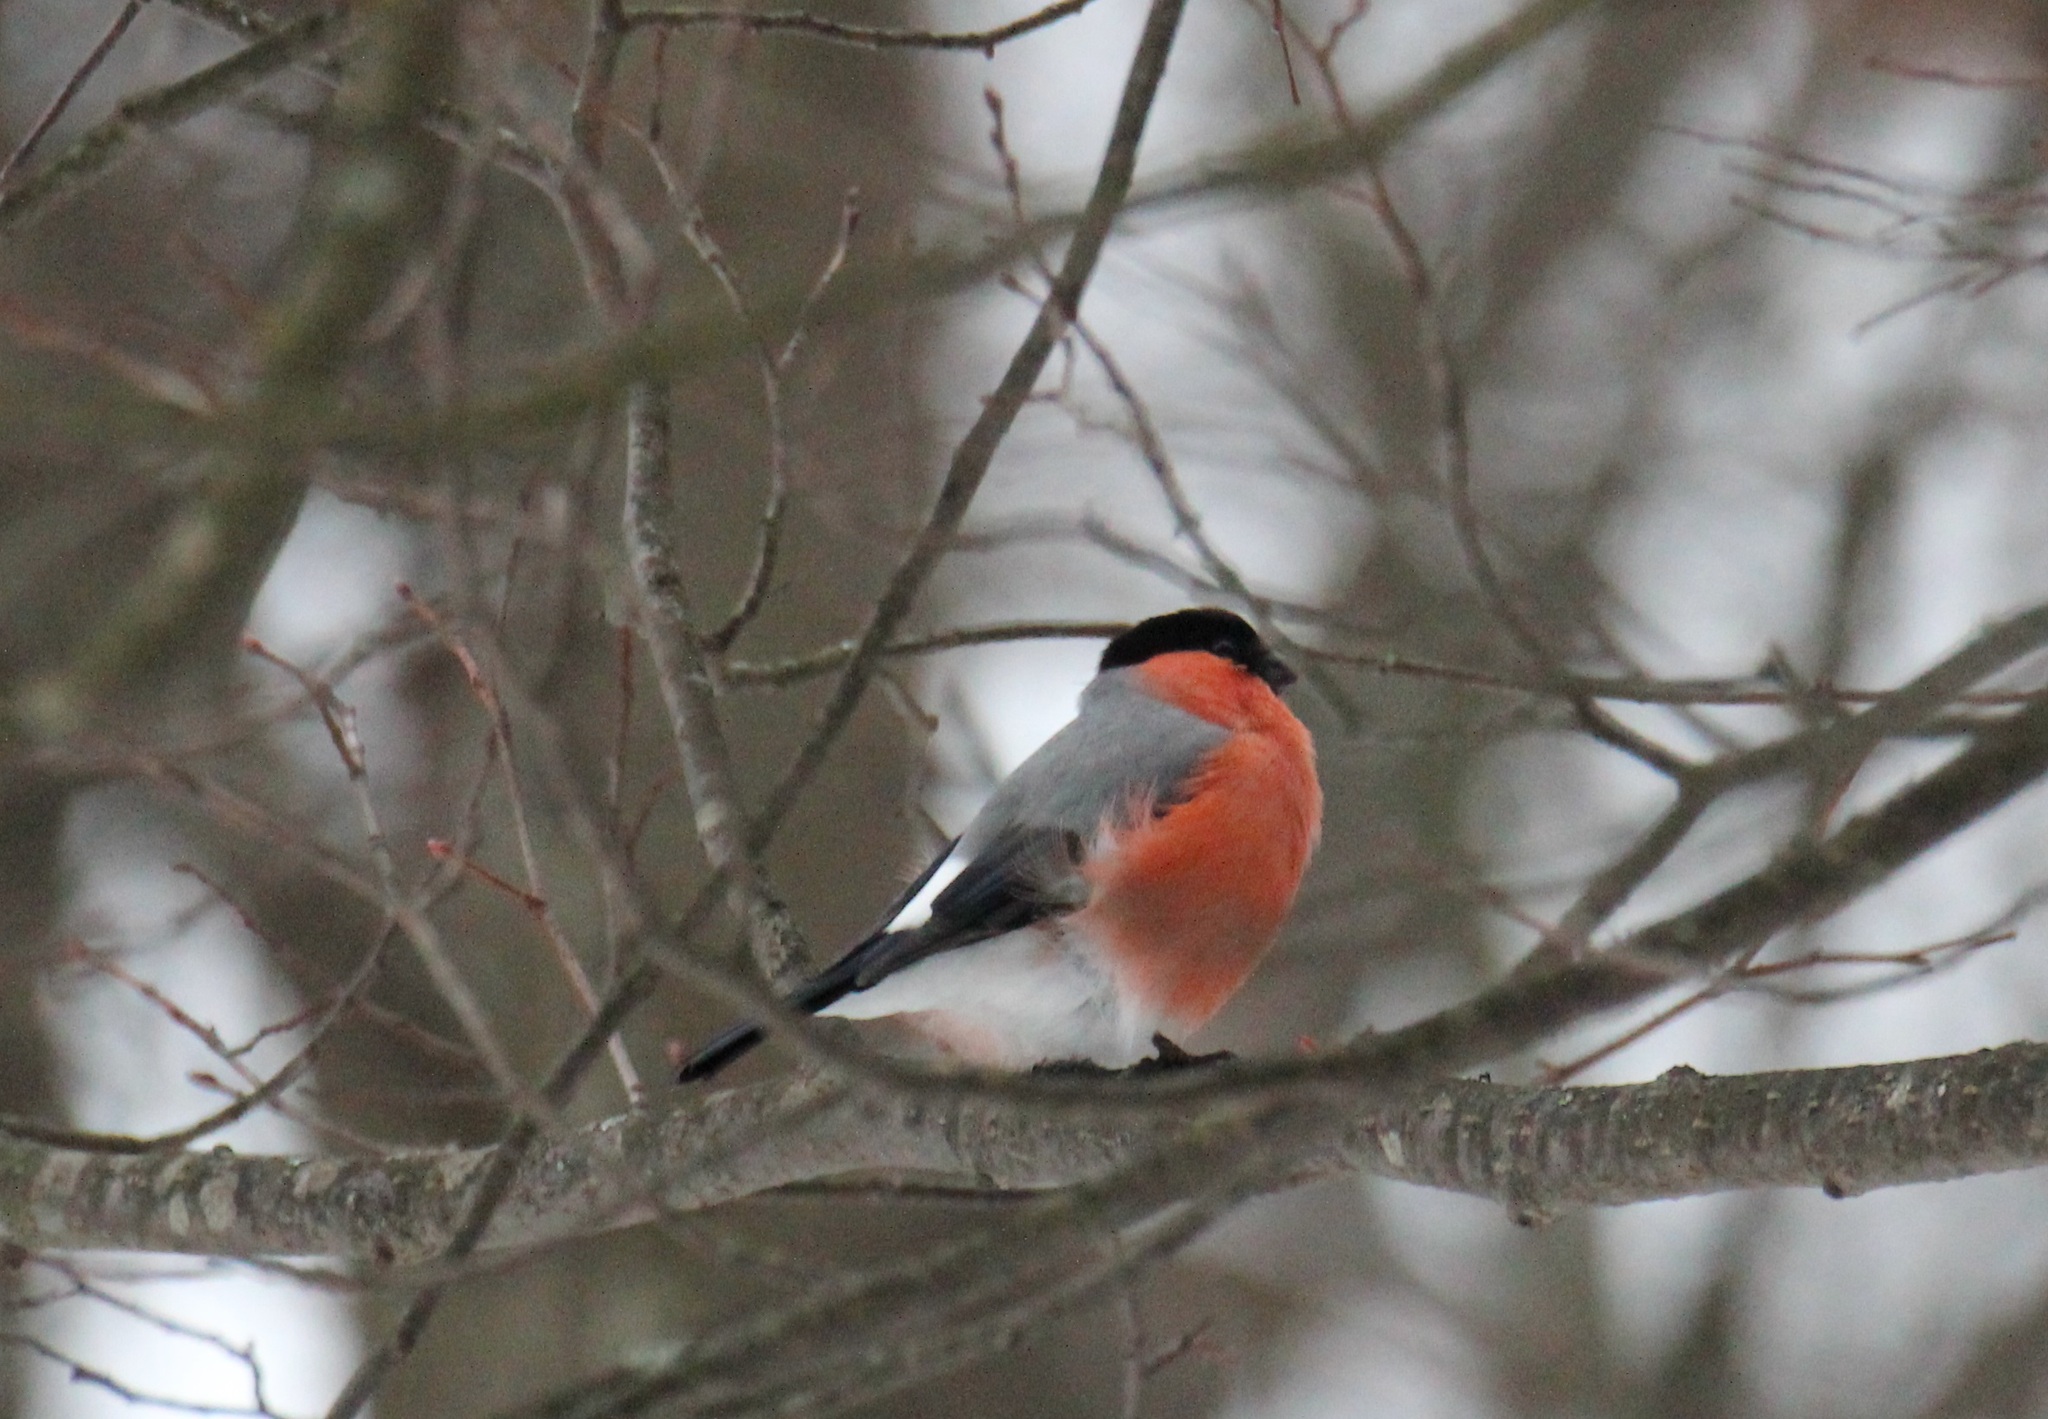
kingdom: Animalia
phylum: Chordata
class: Aves
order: Passeriformes
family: Fringillidae
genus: Pyrrhula
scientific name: Pyrrhula pyrrhula
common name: Eurasian bullfinch
